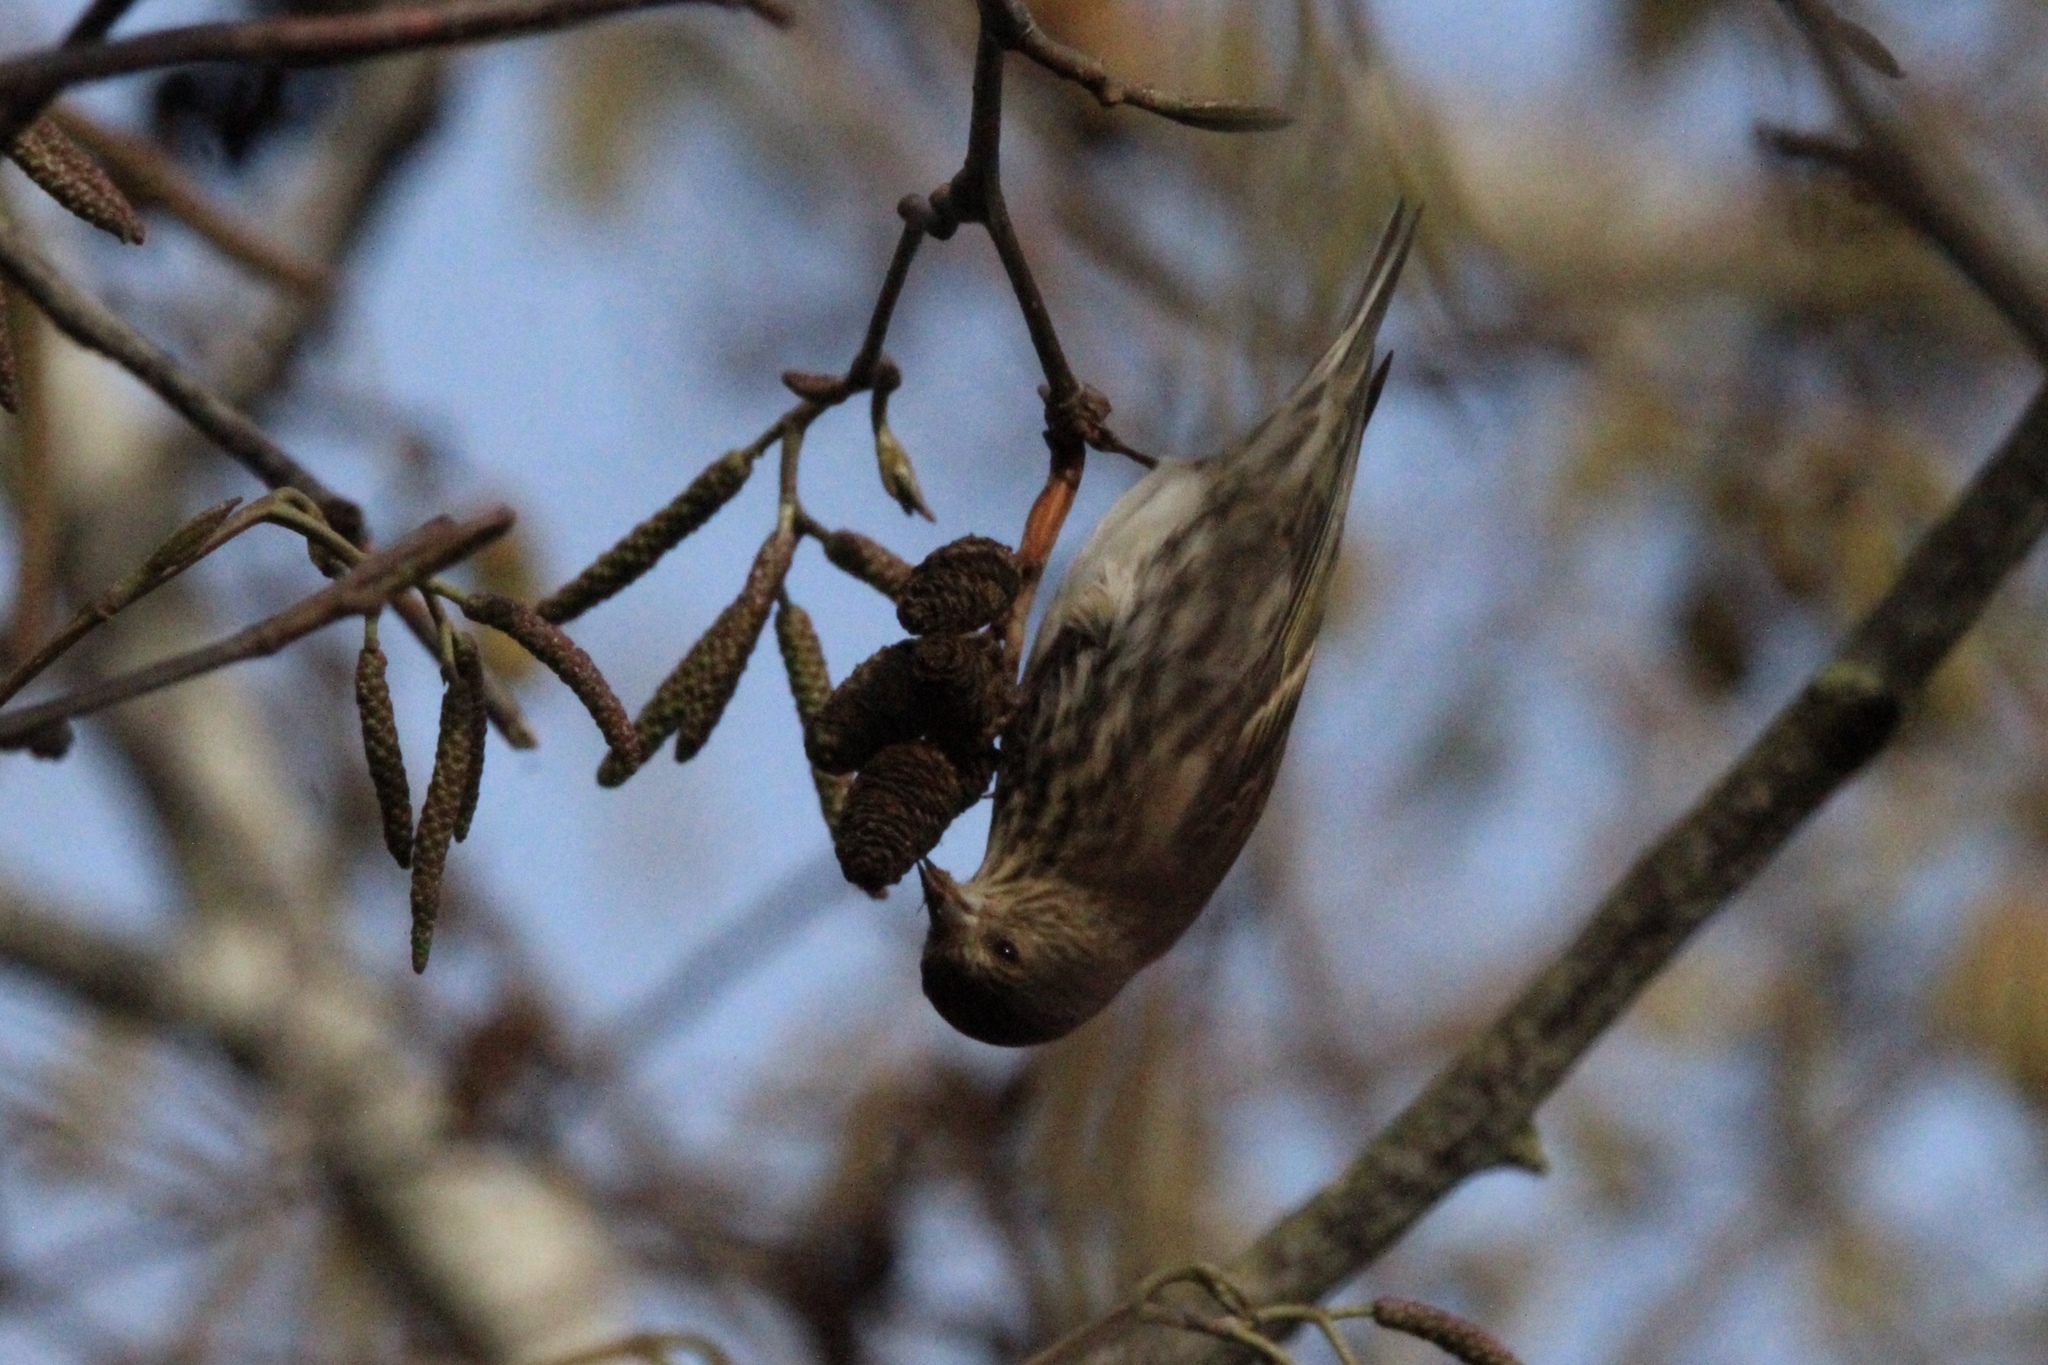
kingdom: Animalia
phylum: Chordata
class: Aves
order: Passeriformes
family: Fringillidae
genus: Spinus
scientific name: Spinus pinus
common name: Pine siskin
